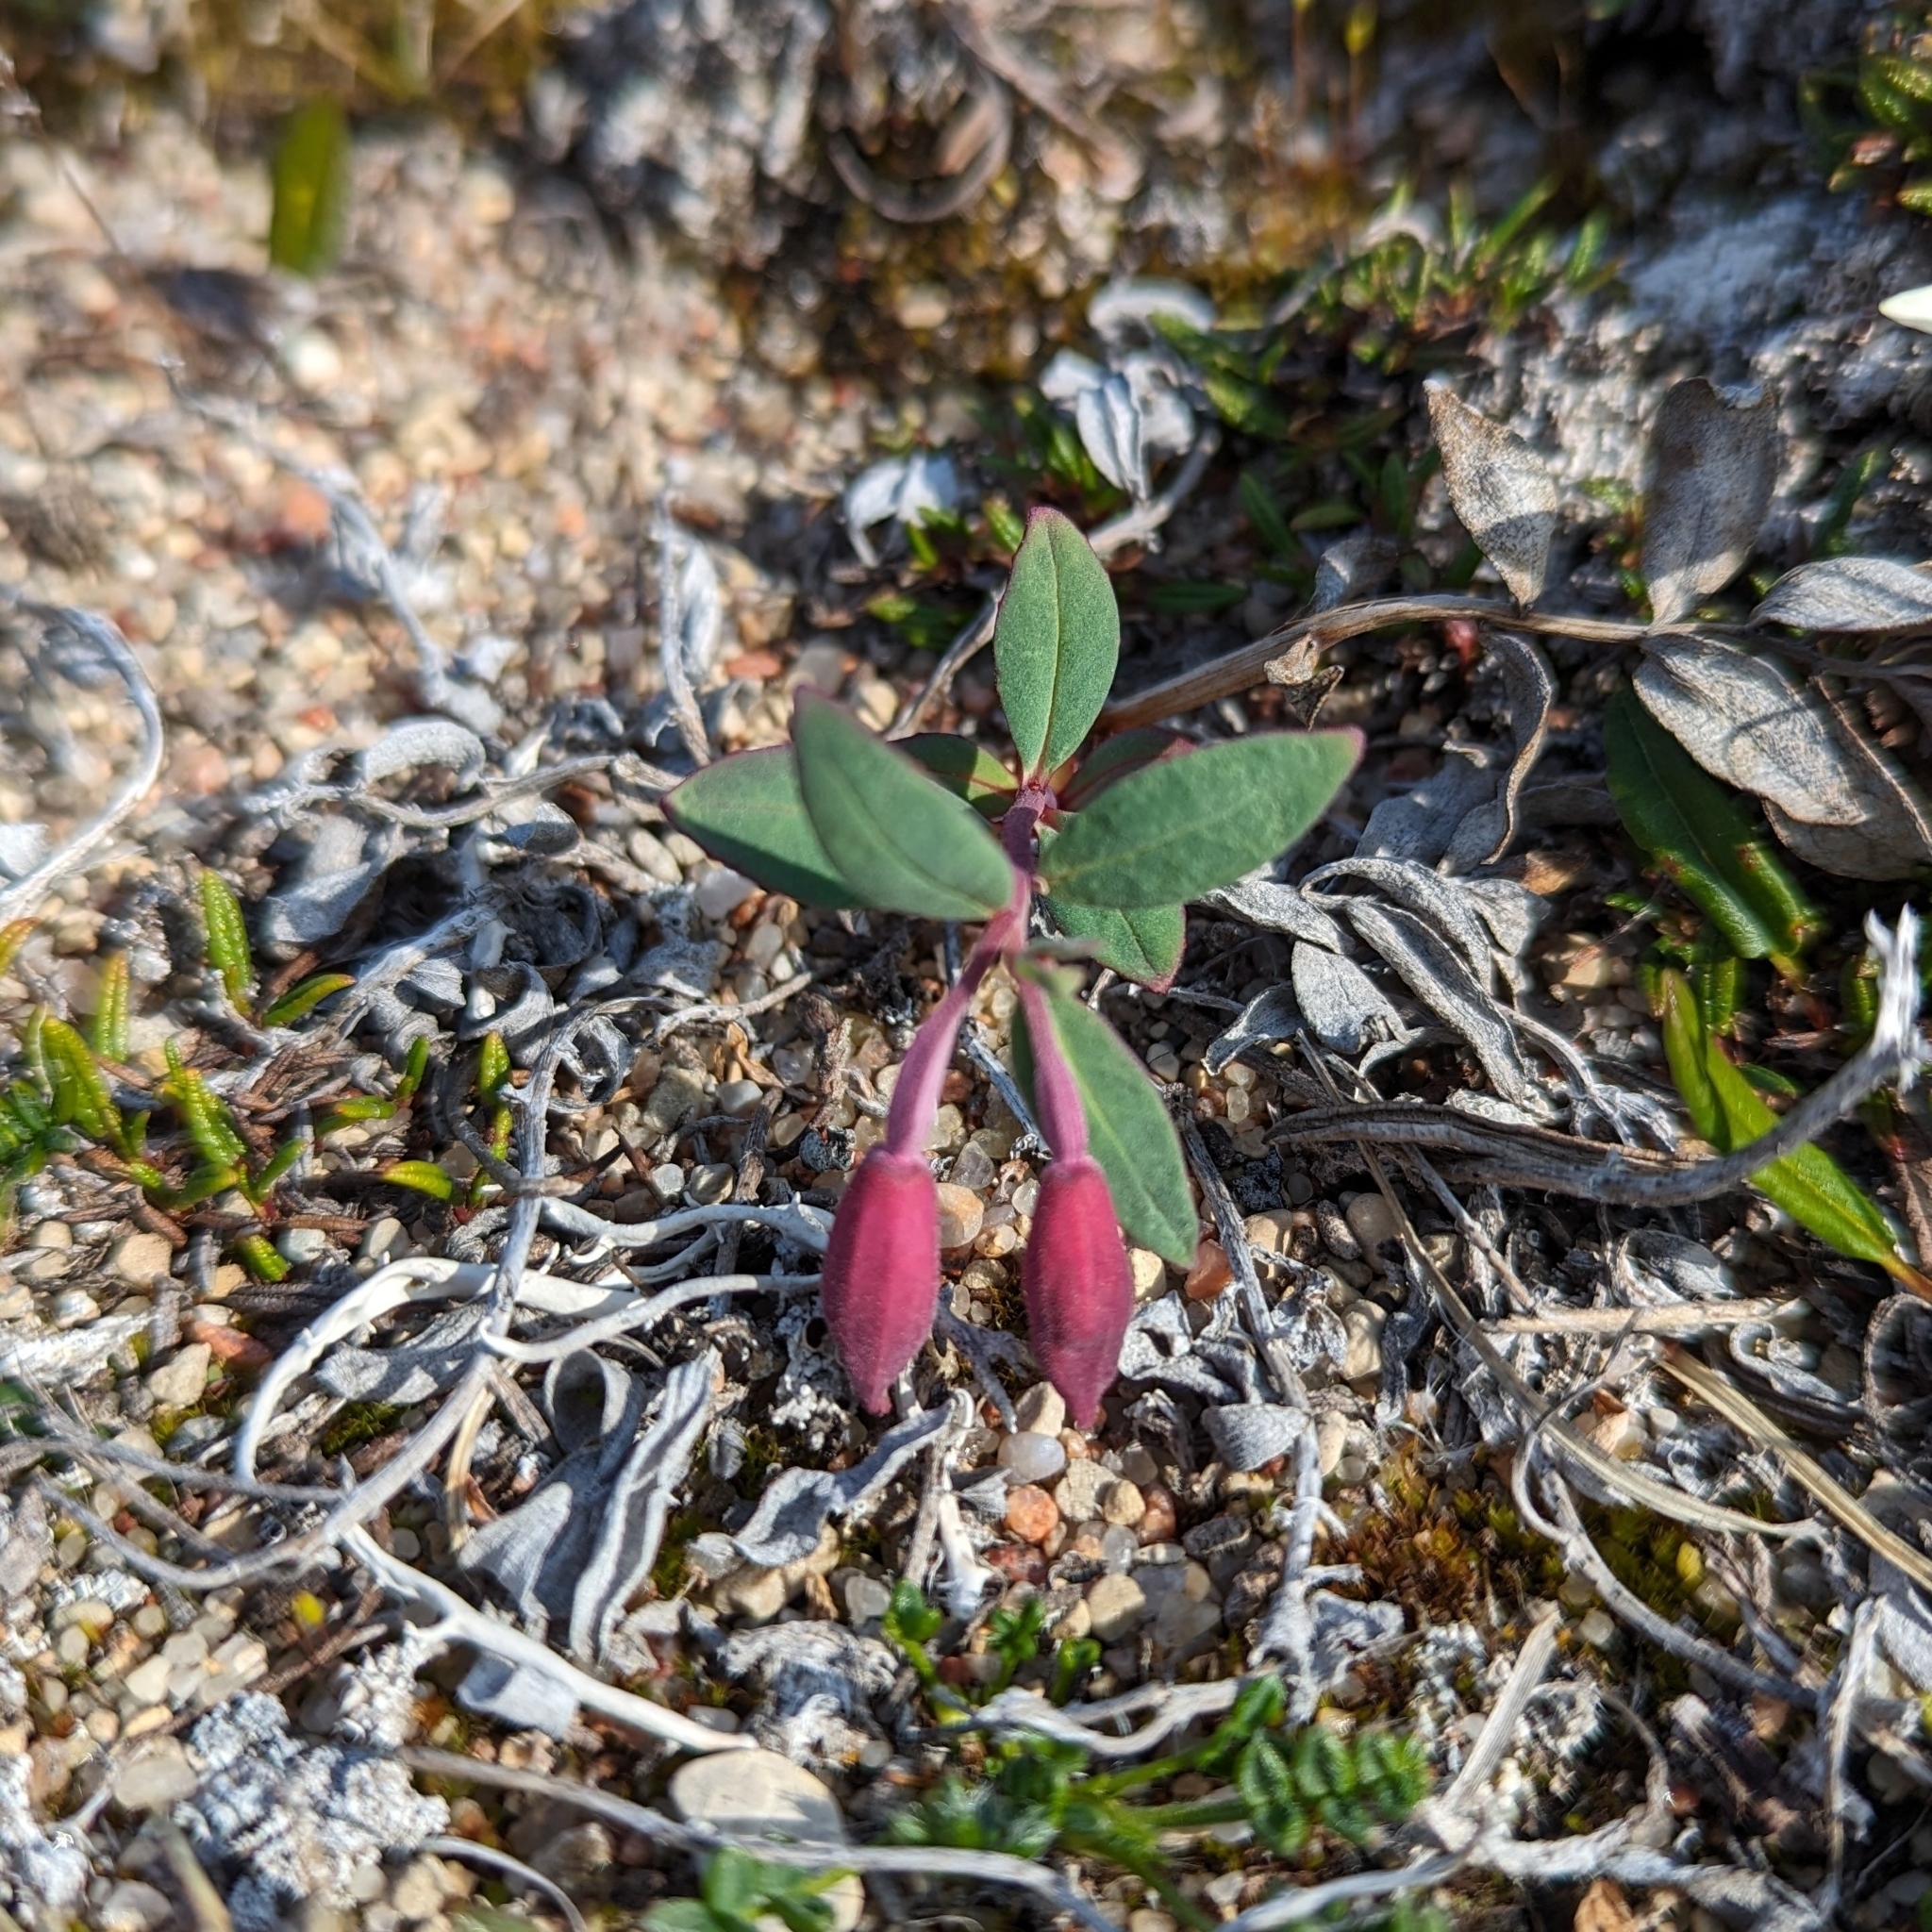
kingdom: Plantae
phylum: Tracheophyta
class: Magnoliopsida
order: Myrtales
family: Onagraceae
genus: Chamaenerion
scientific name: Chamaenerion latifolium
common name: Dwarf fireweed
